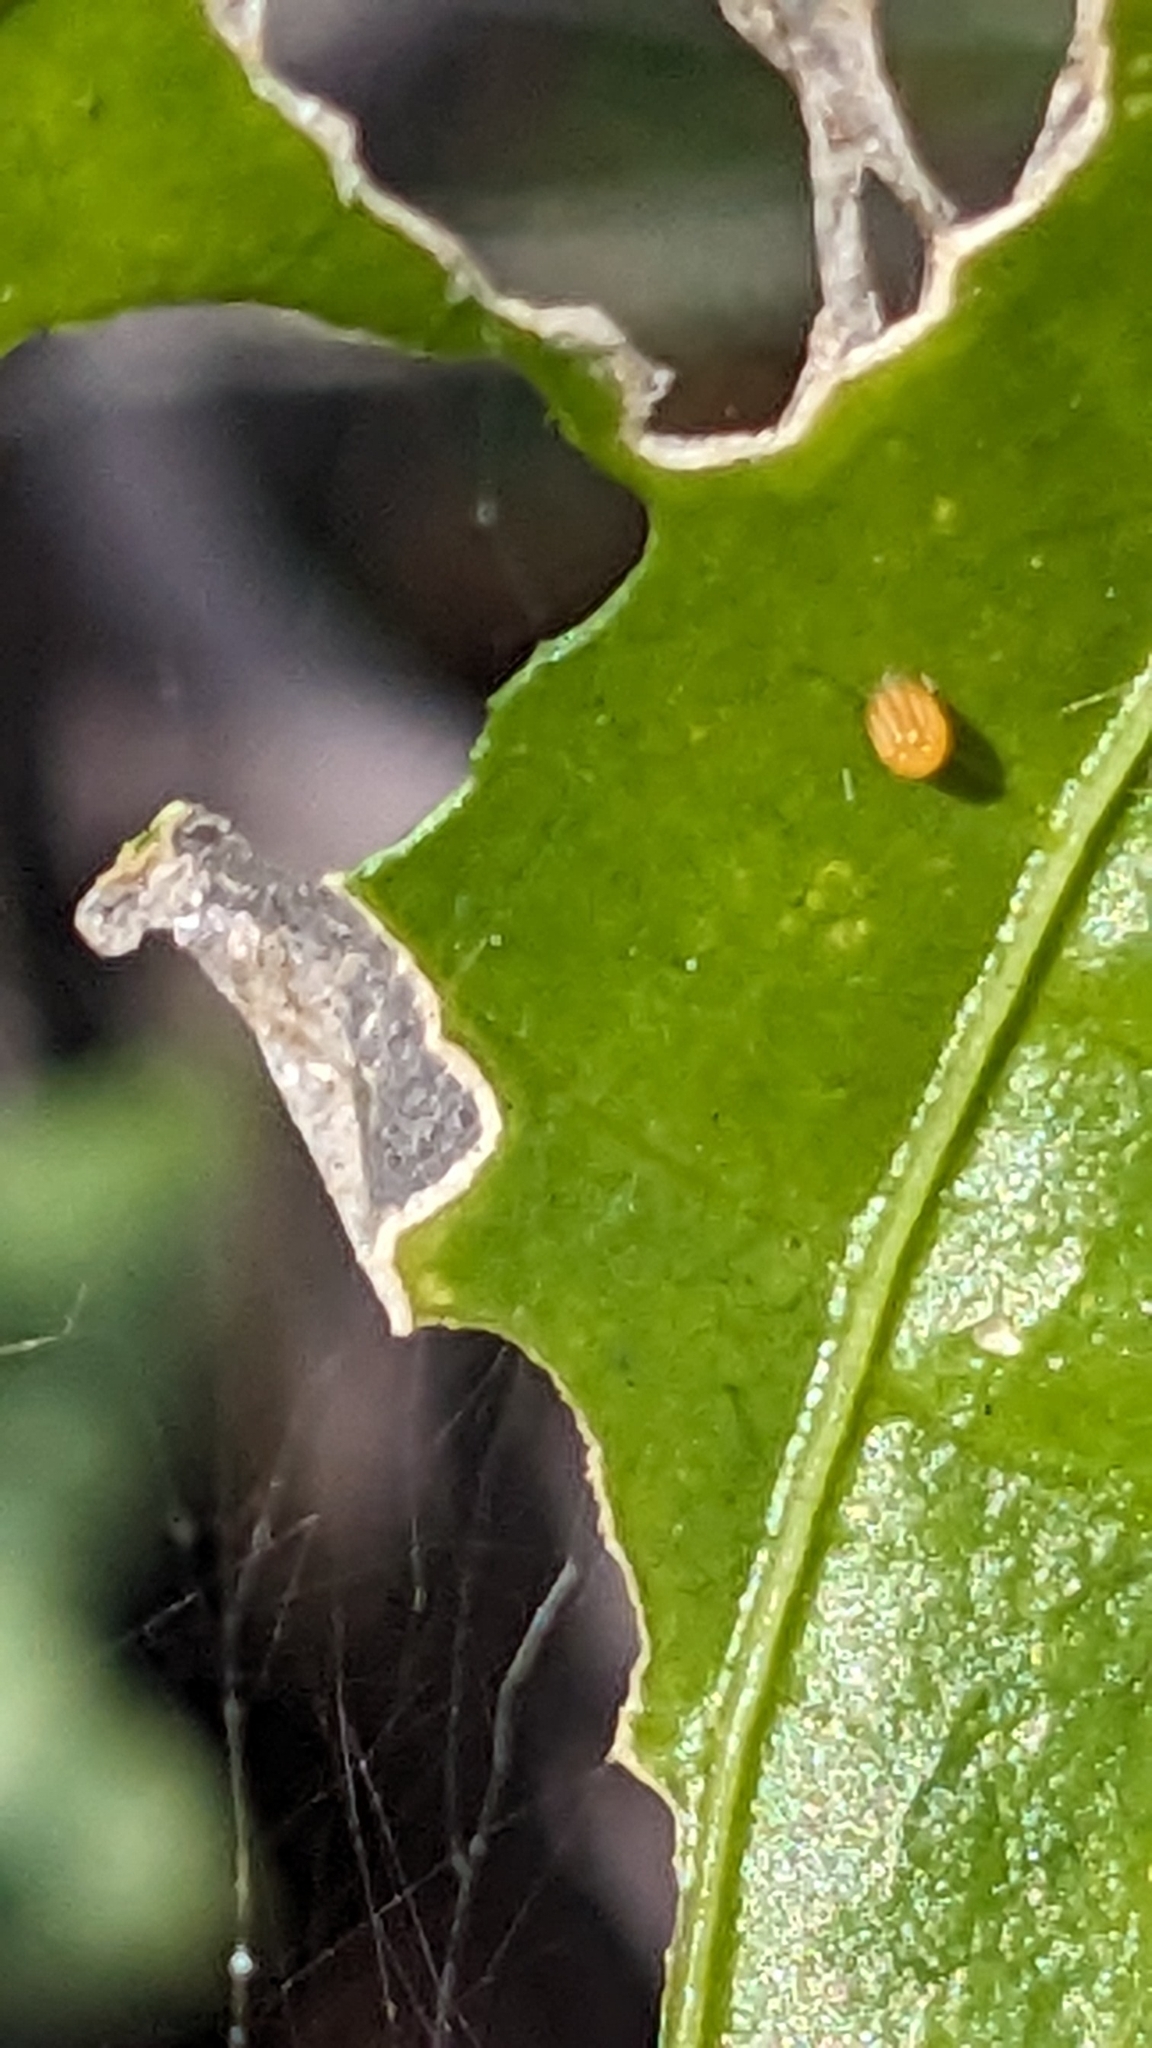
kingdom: Animalia
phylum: Arthropoda
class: Insecta
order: Lepidoptera
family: Nymphalidae
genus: Dione
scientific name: Dione vanillae
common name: Gulf fritillary
